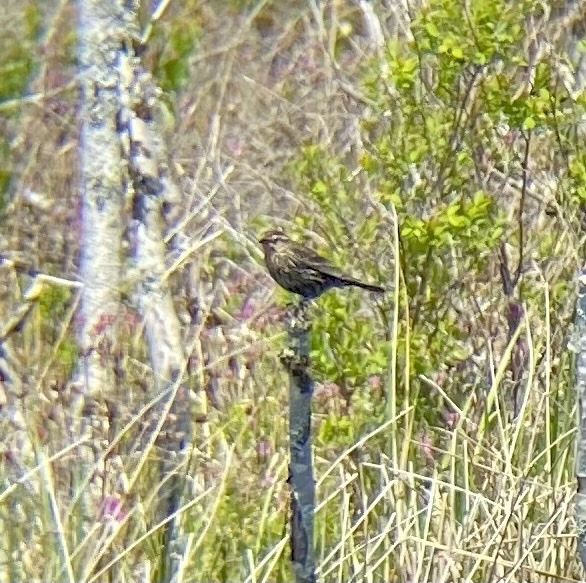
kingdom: Animalia
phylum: Chordata
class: Aves
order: Passeriformes
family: Icteridae
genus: Agelaius
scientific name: Agelaius phoeniceus
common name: Red-winged blackbird
